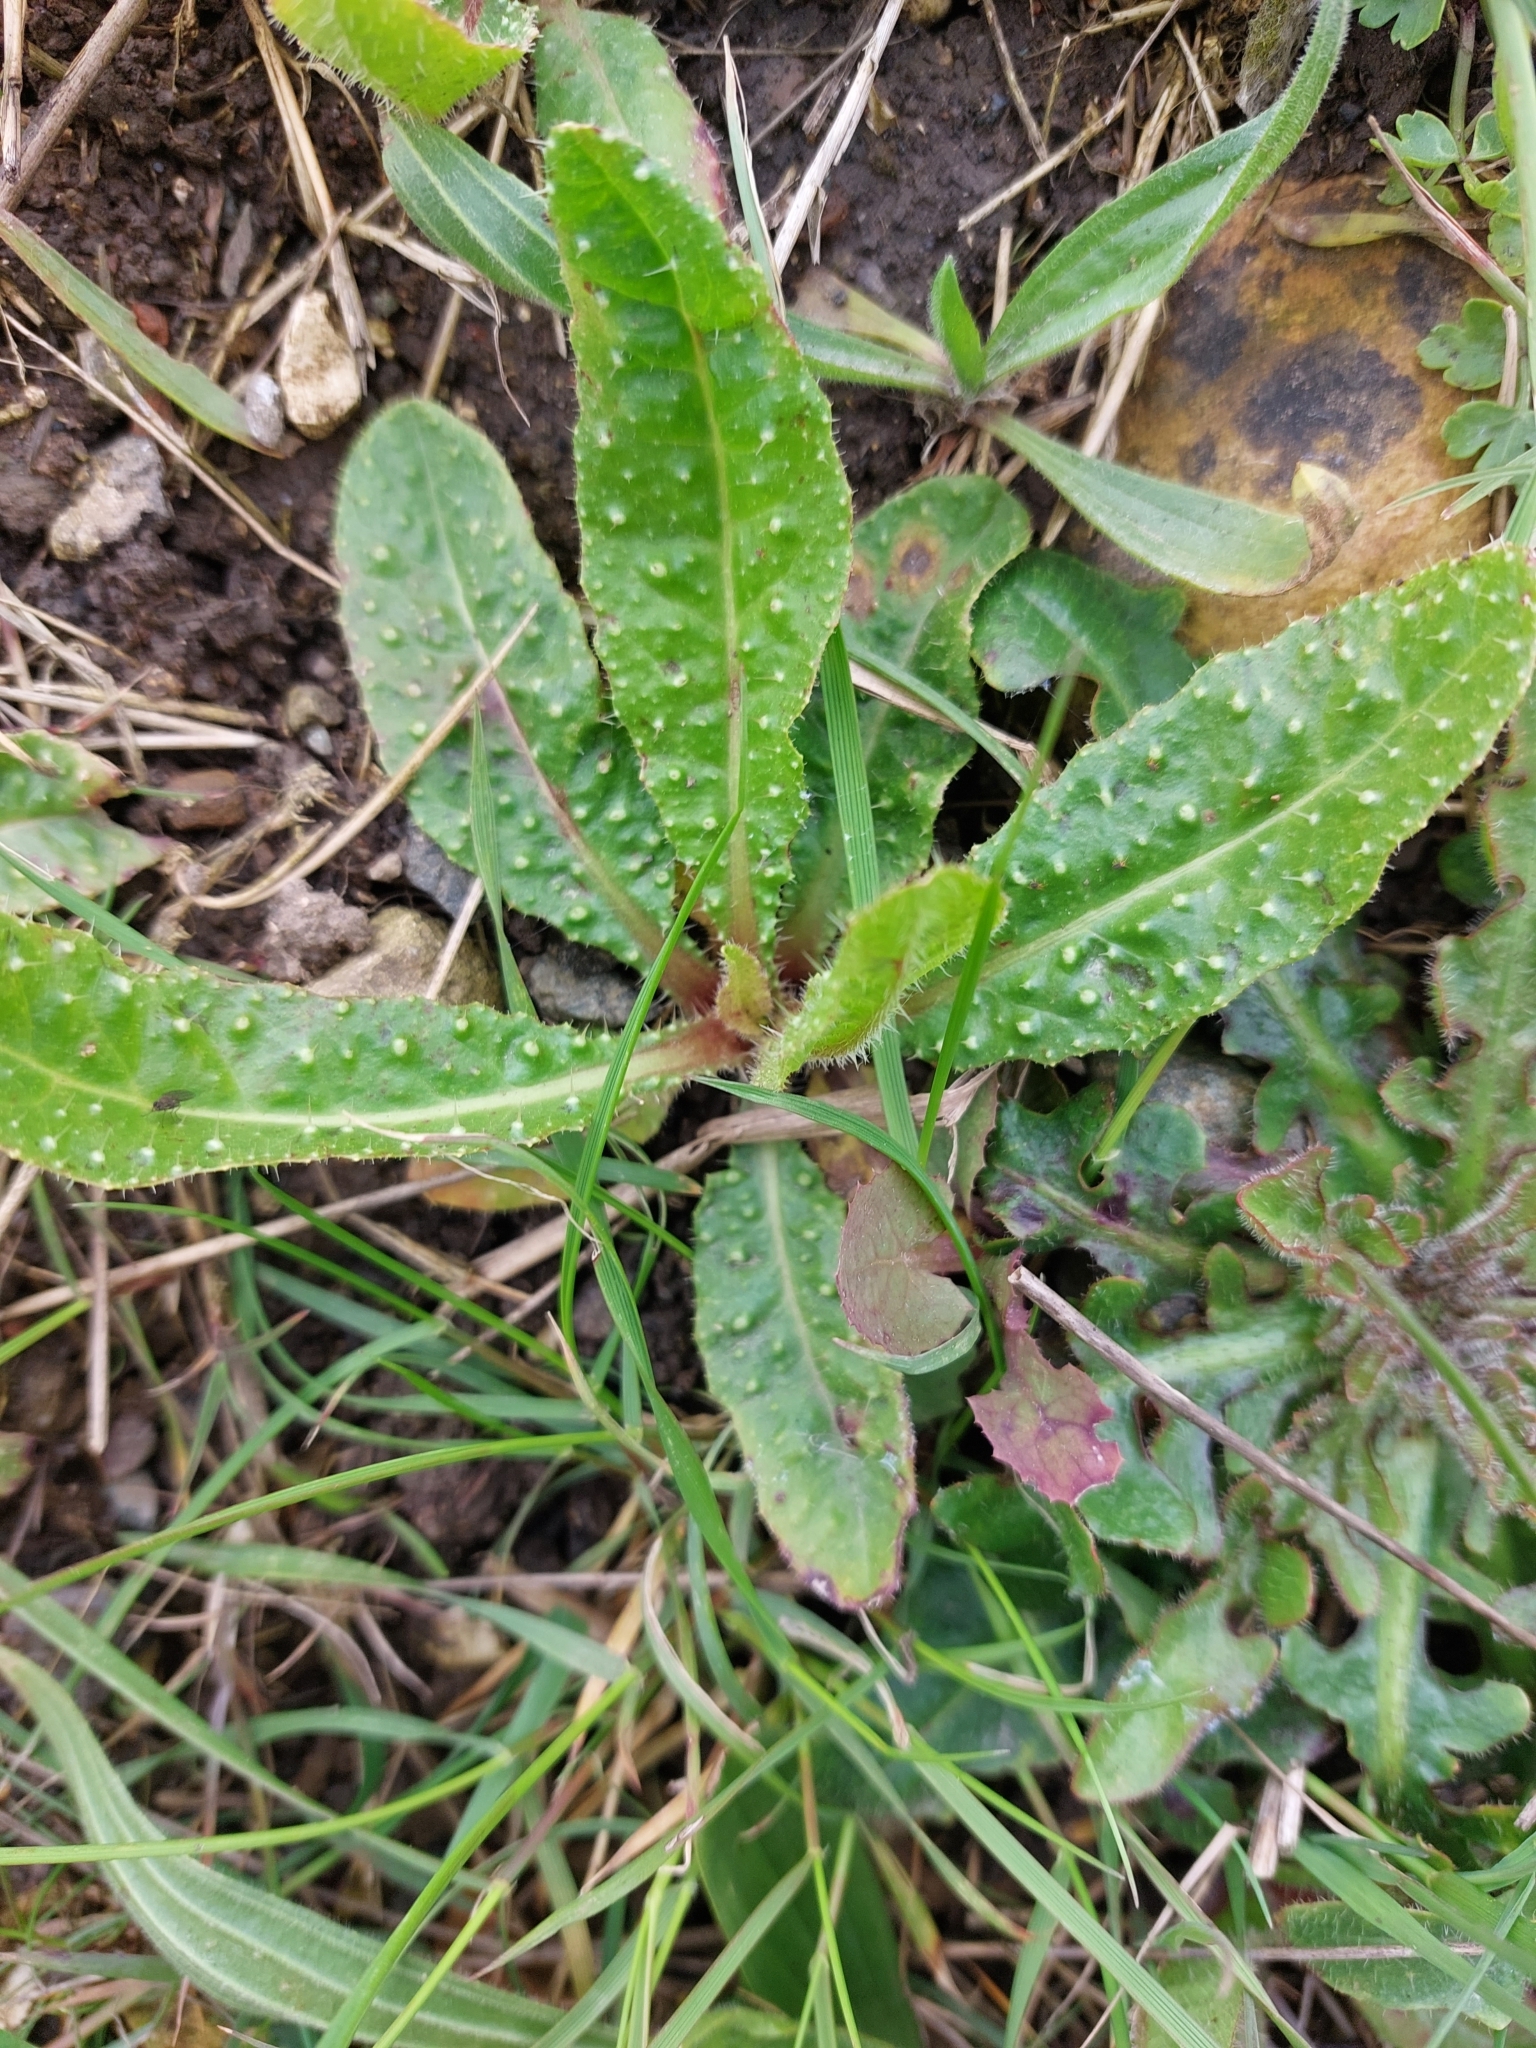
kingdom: Plantae
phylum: Tracheophyta
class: Magnoliopsida
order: Asterales
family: Asteraceae
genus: Helminthotheca
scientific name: Helminthotheca echioides
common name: Ox-tongue
